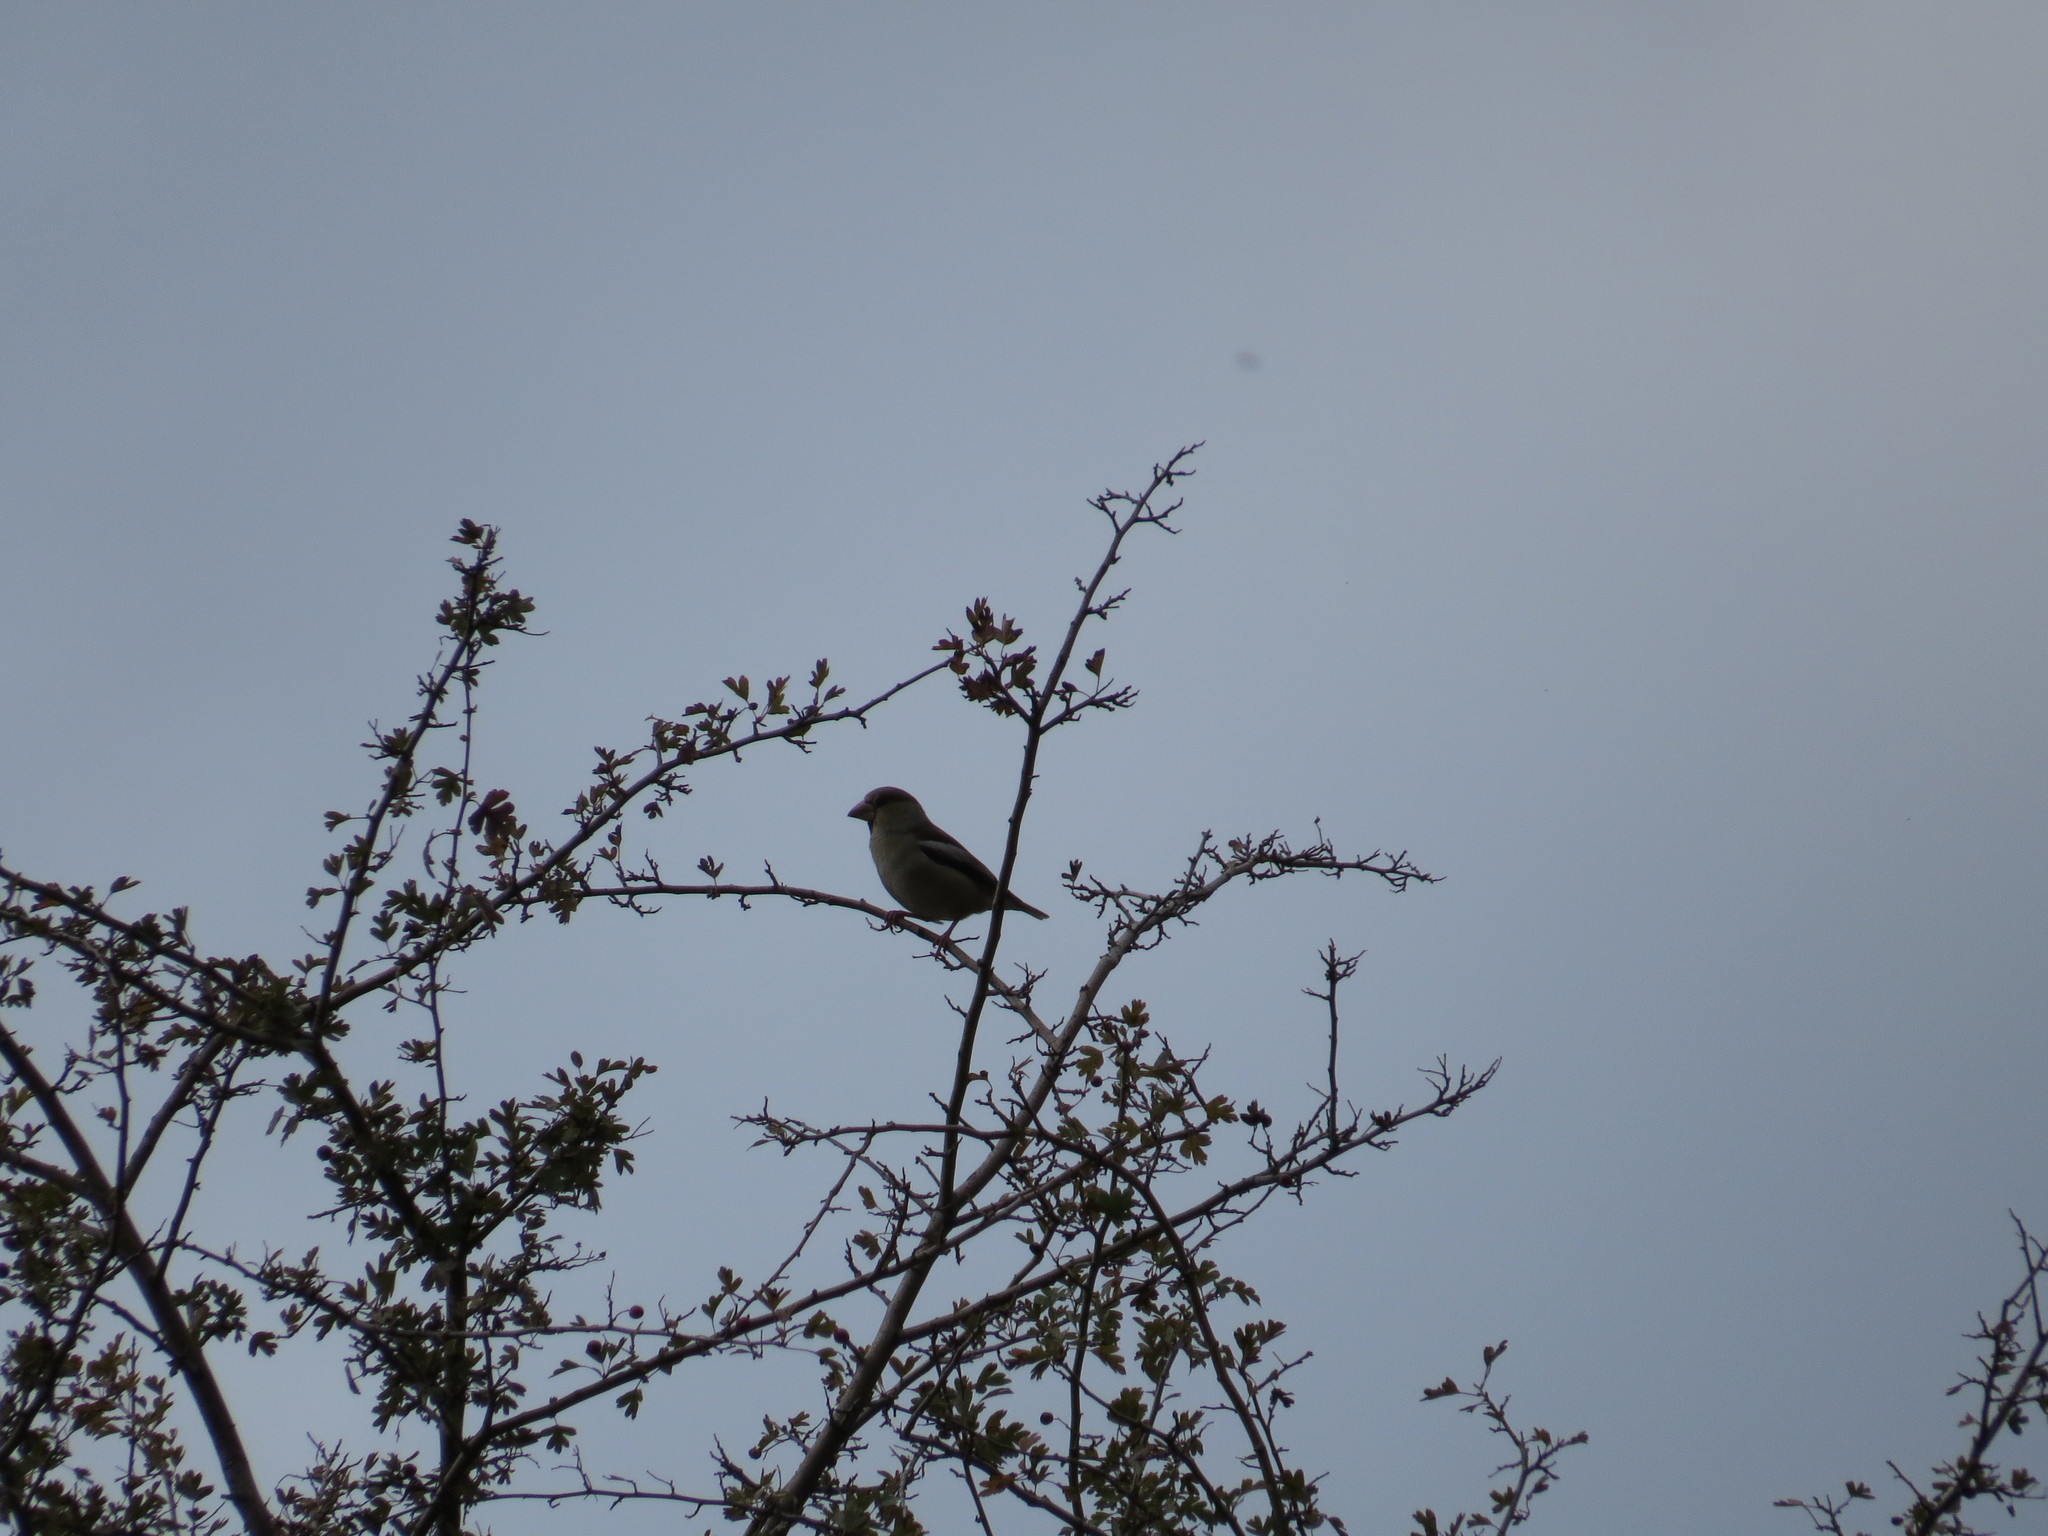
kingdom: Animalia
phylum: Chordata
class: Aves
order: Passeriformes
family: Fringillidae
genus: Coccothraustes
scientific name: Coccothraustes coccothraustes
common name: Hawfinch
